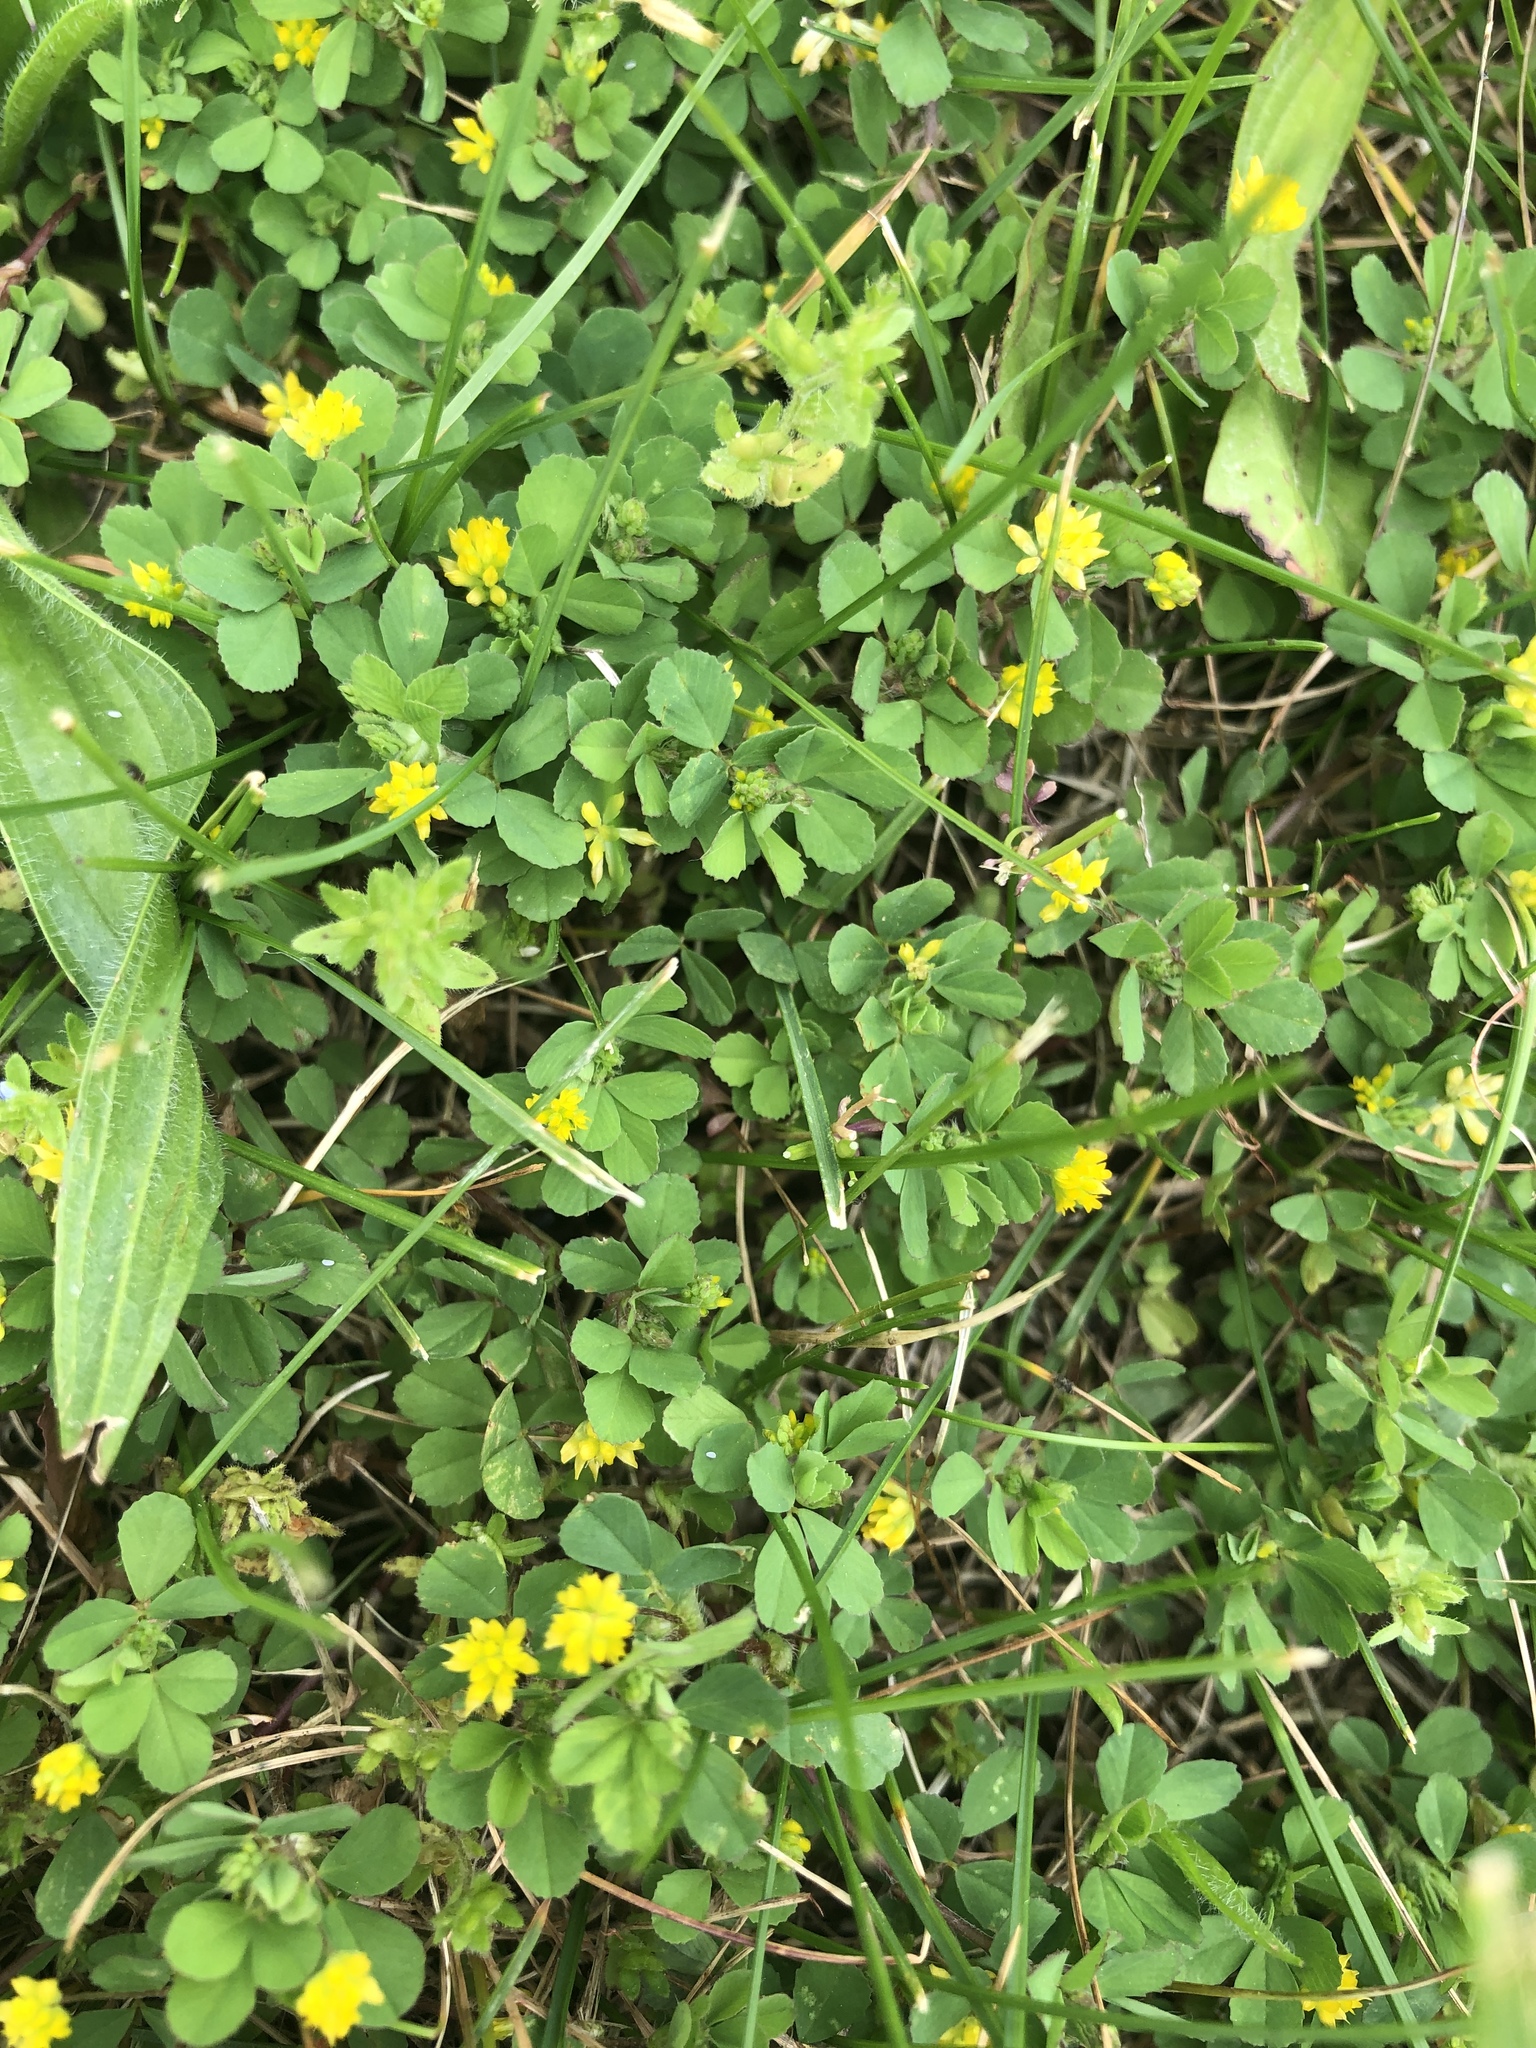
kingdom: Plantae
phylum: Tracheophyta
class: Magnoliopsida
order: Fabales
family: Fabaceae
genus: Trifolium
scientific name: Trifolium dubium
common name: Suckling clover
